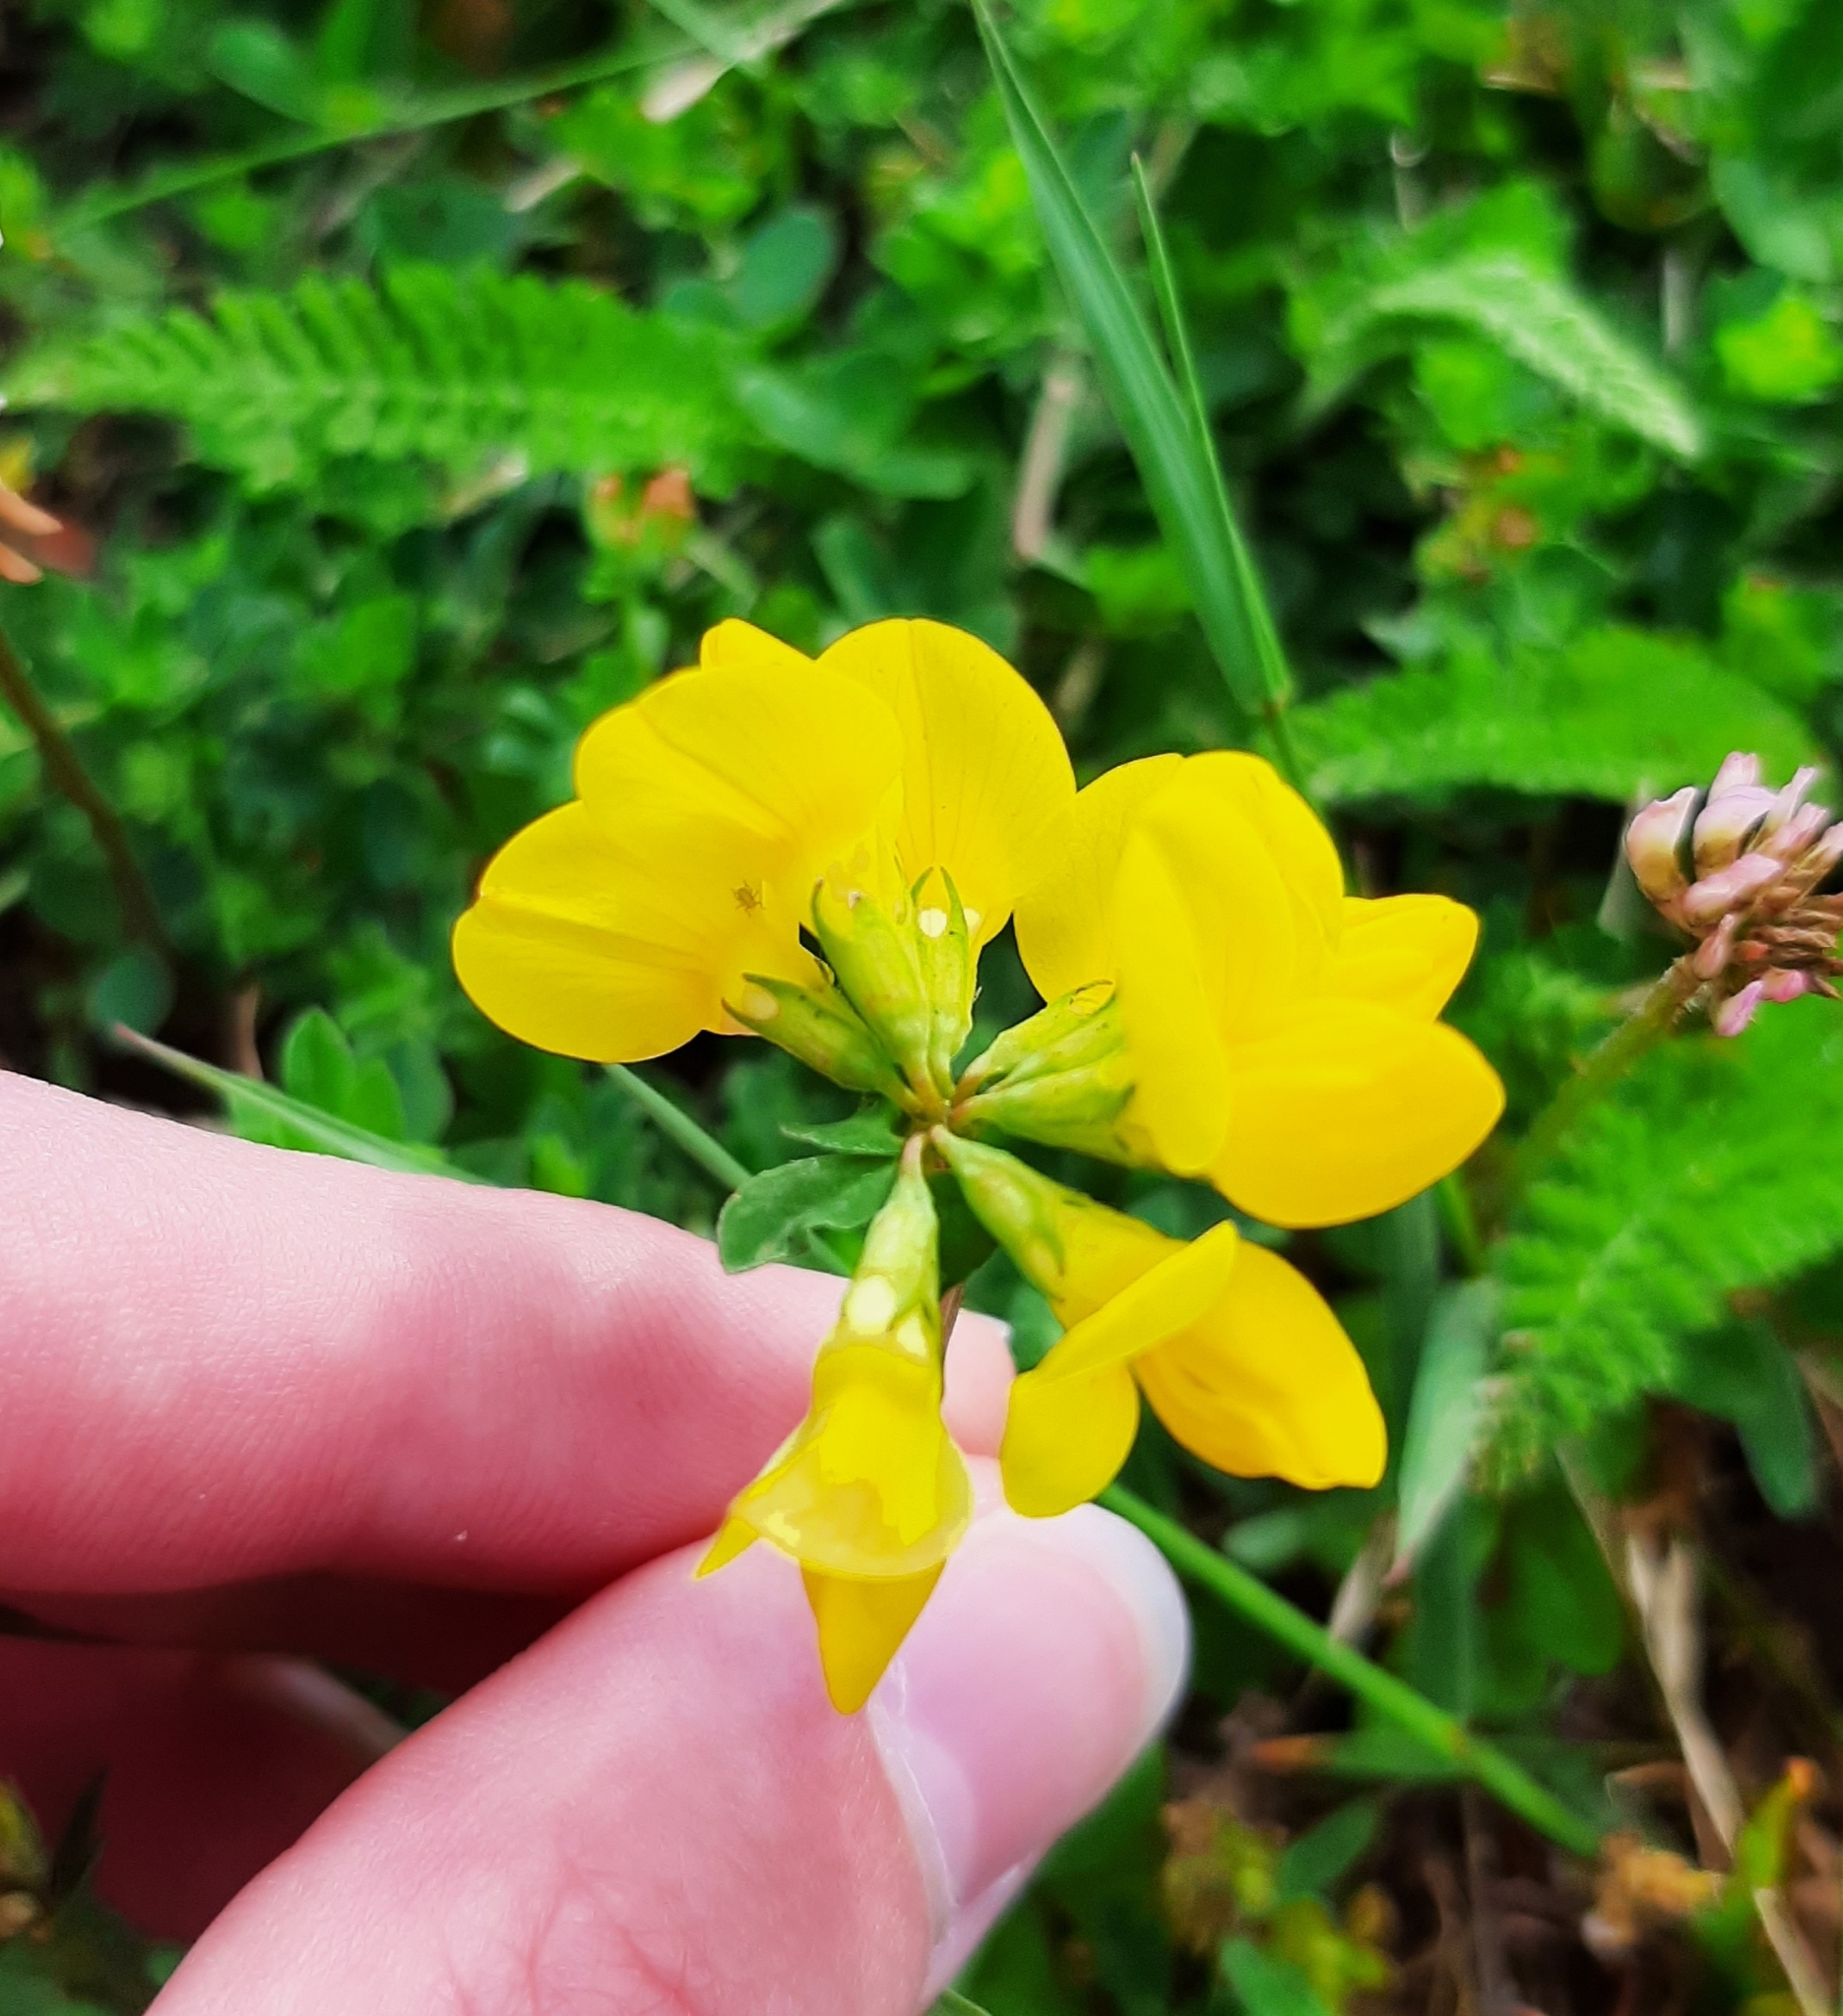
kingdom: Plantae
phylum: Tracheophyta
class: Magnoliopsida
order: Fabales
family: Fabaceae
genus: Lotus
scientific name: Lotus corniculatus
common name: Common bird's-foot-trefoil
